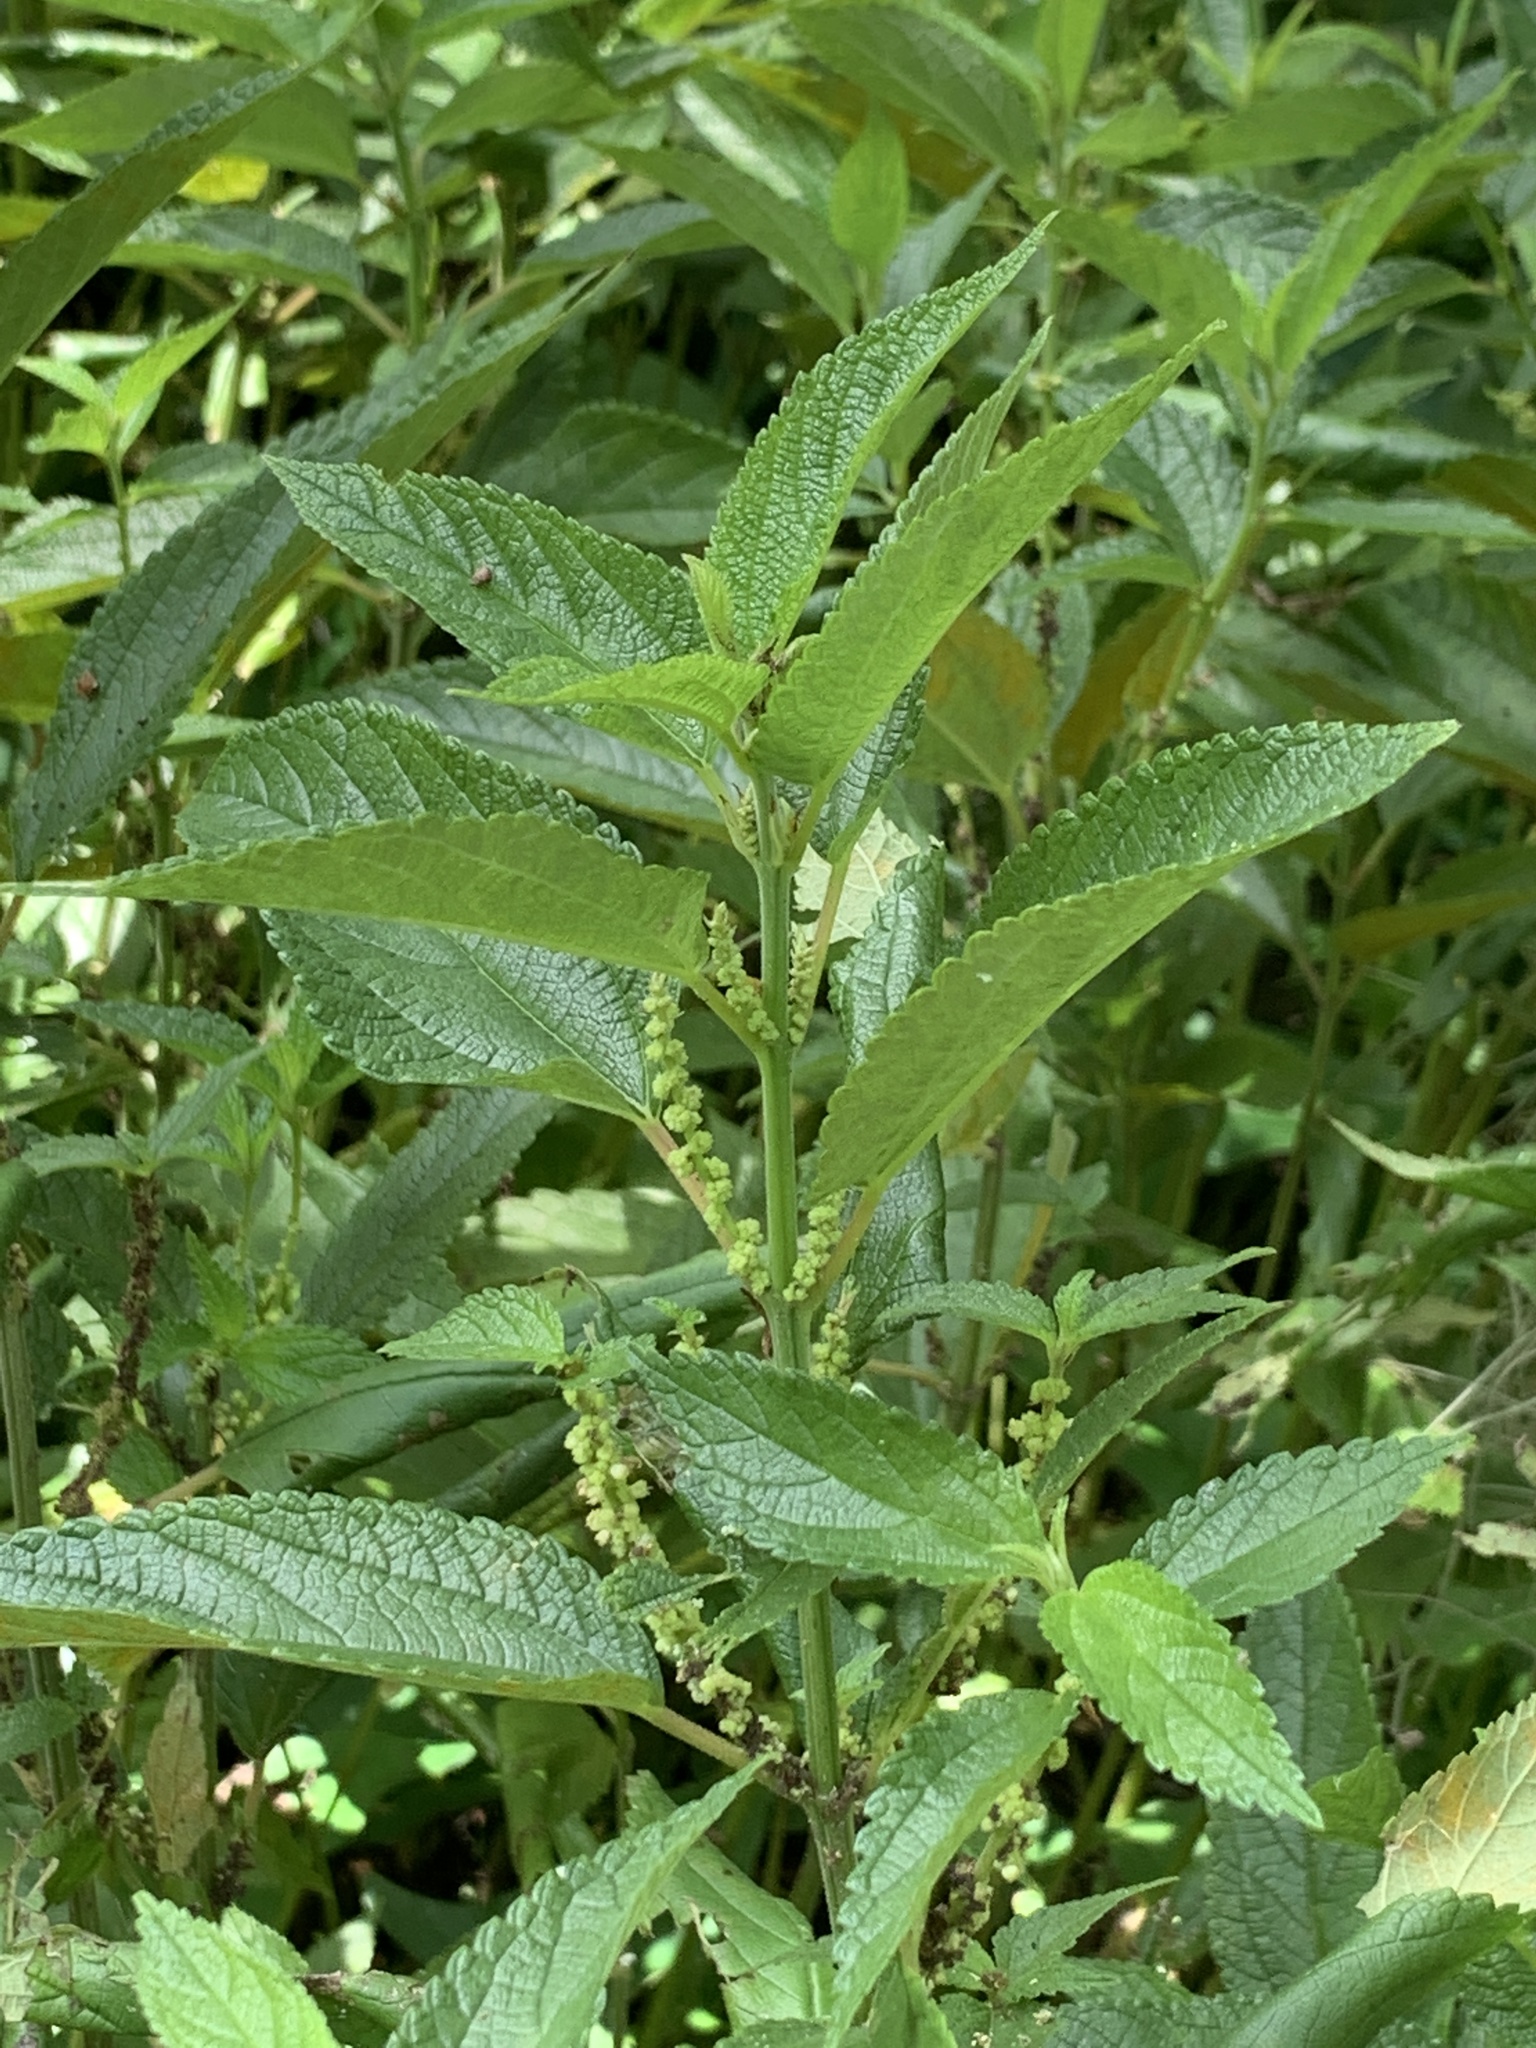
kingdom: Plantae
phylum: Tracheophyta
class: Magnoliopsida
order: Rosales
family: Urticaceae
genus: Boehmeria
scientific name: Boehmeria cylindrica
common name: Bog-hemp
